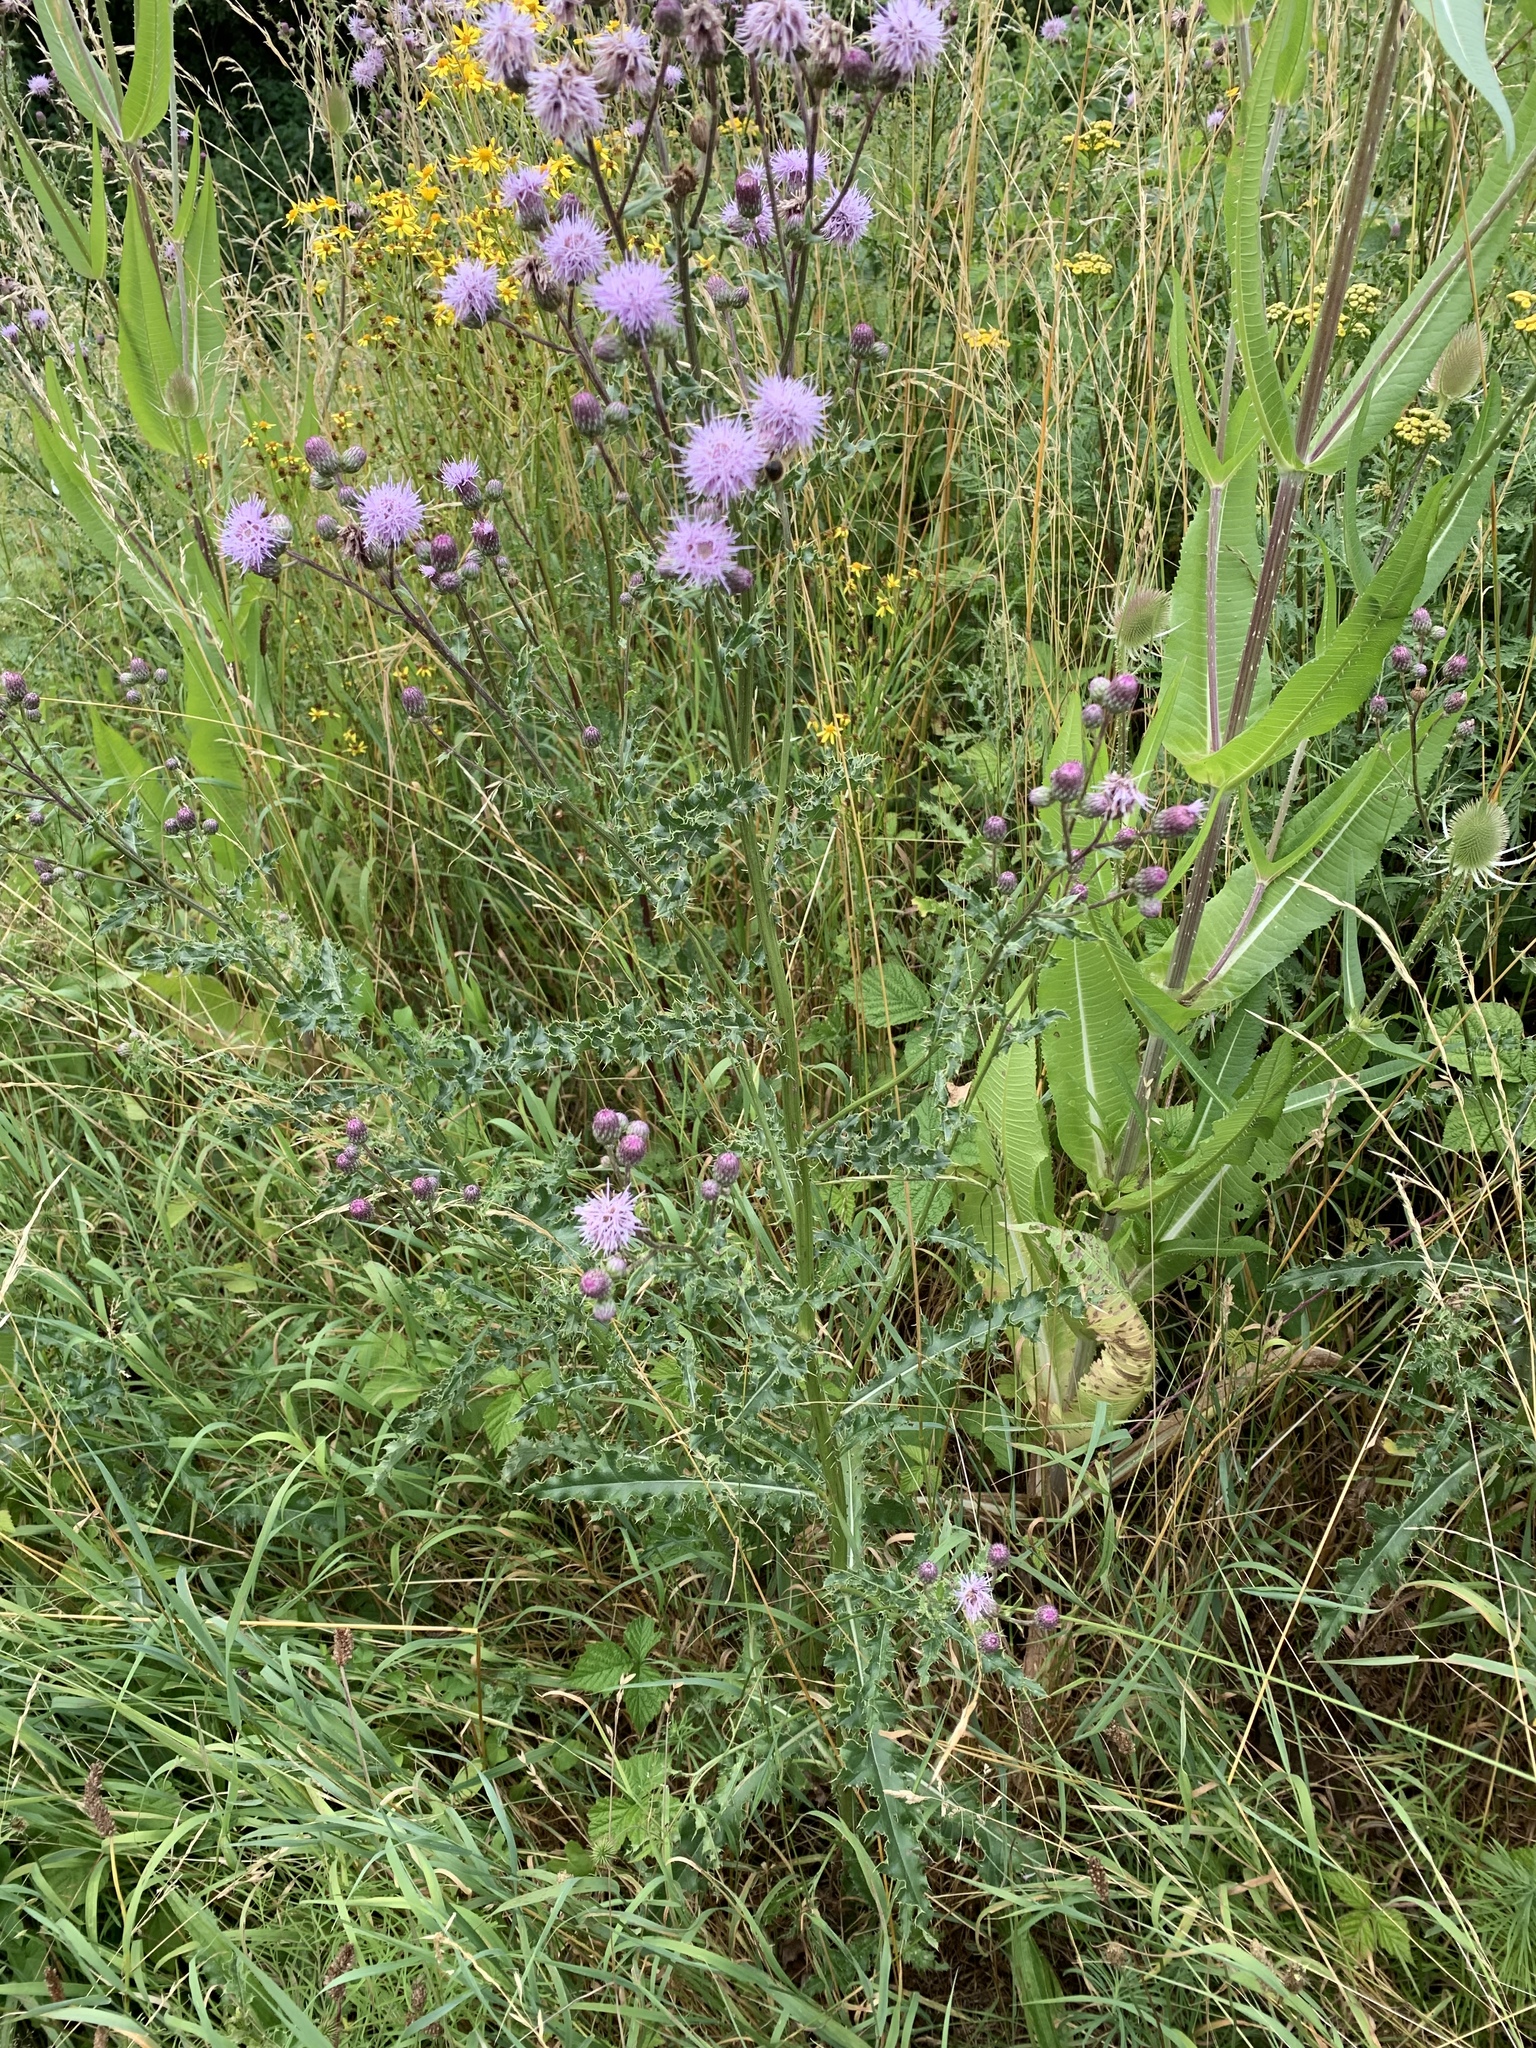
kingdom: Plantae
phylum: Tracheophyta
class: Magnoliopsida
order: Asterales
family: Asteraceae
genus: Cirsium
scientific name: Cirsium arvense
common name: Creeping thistle
